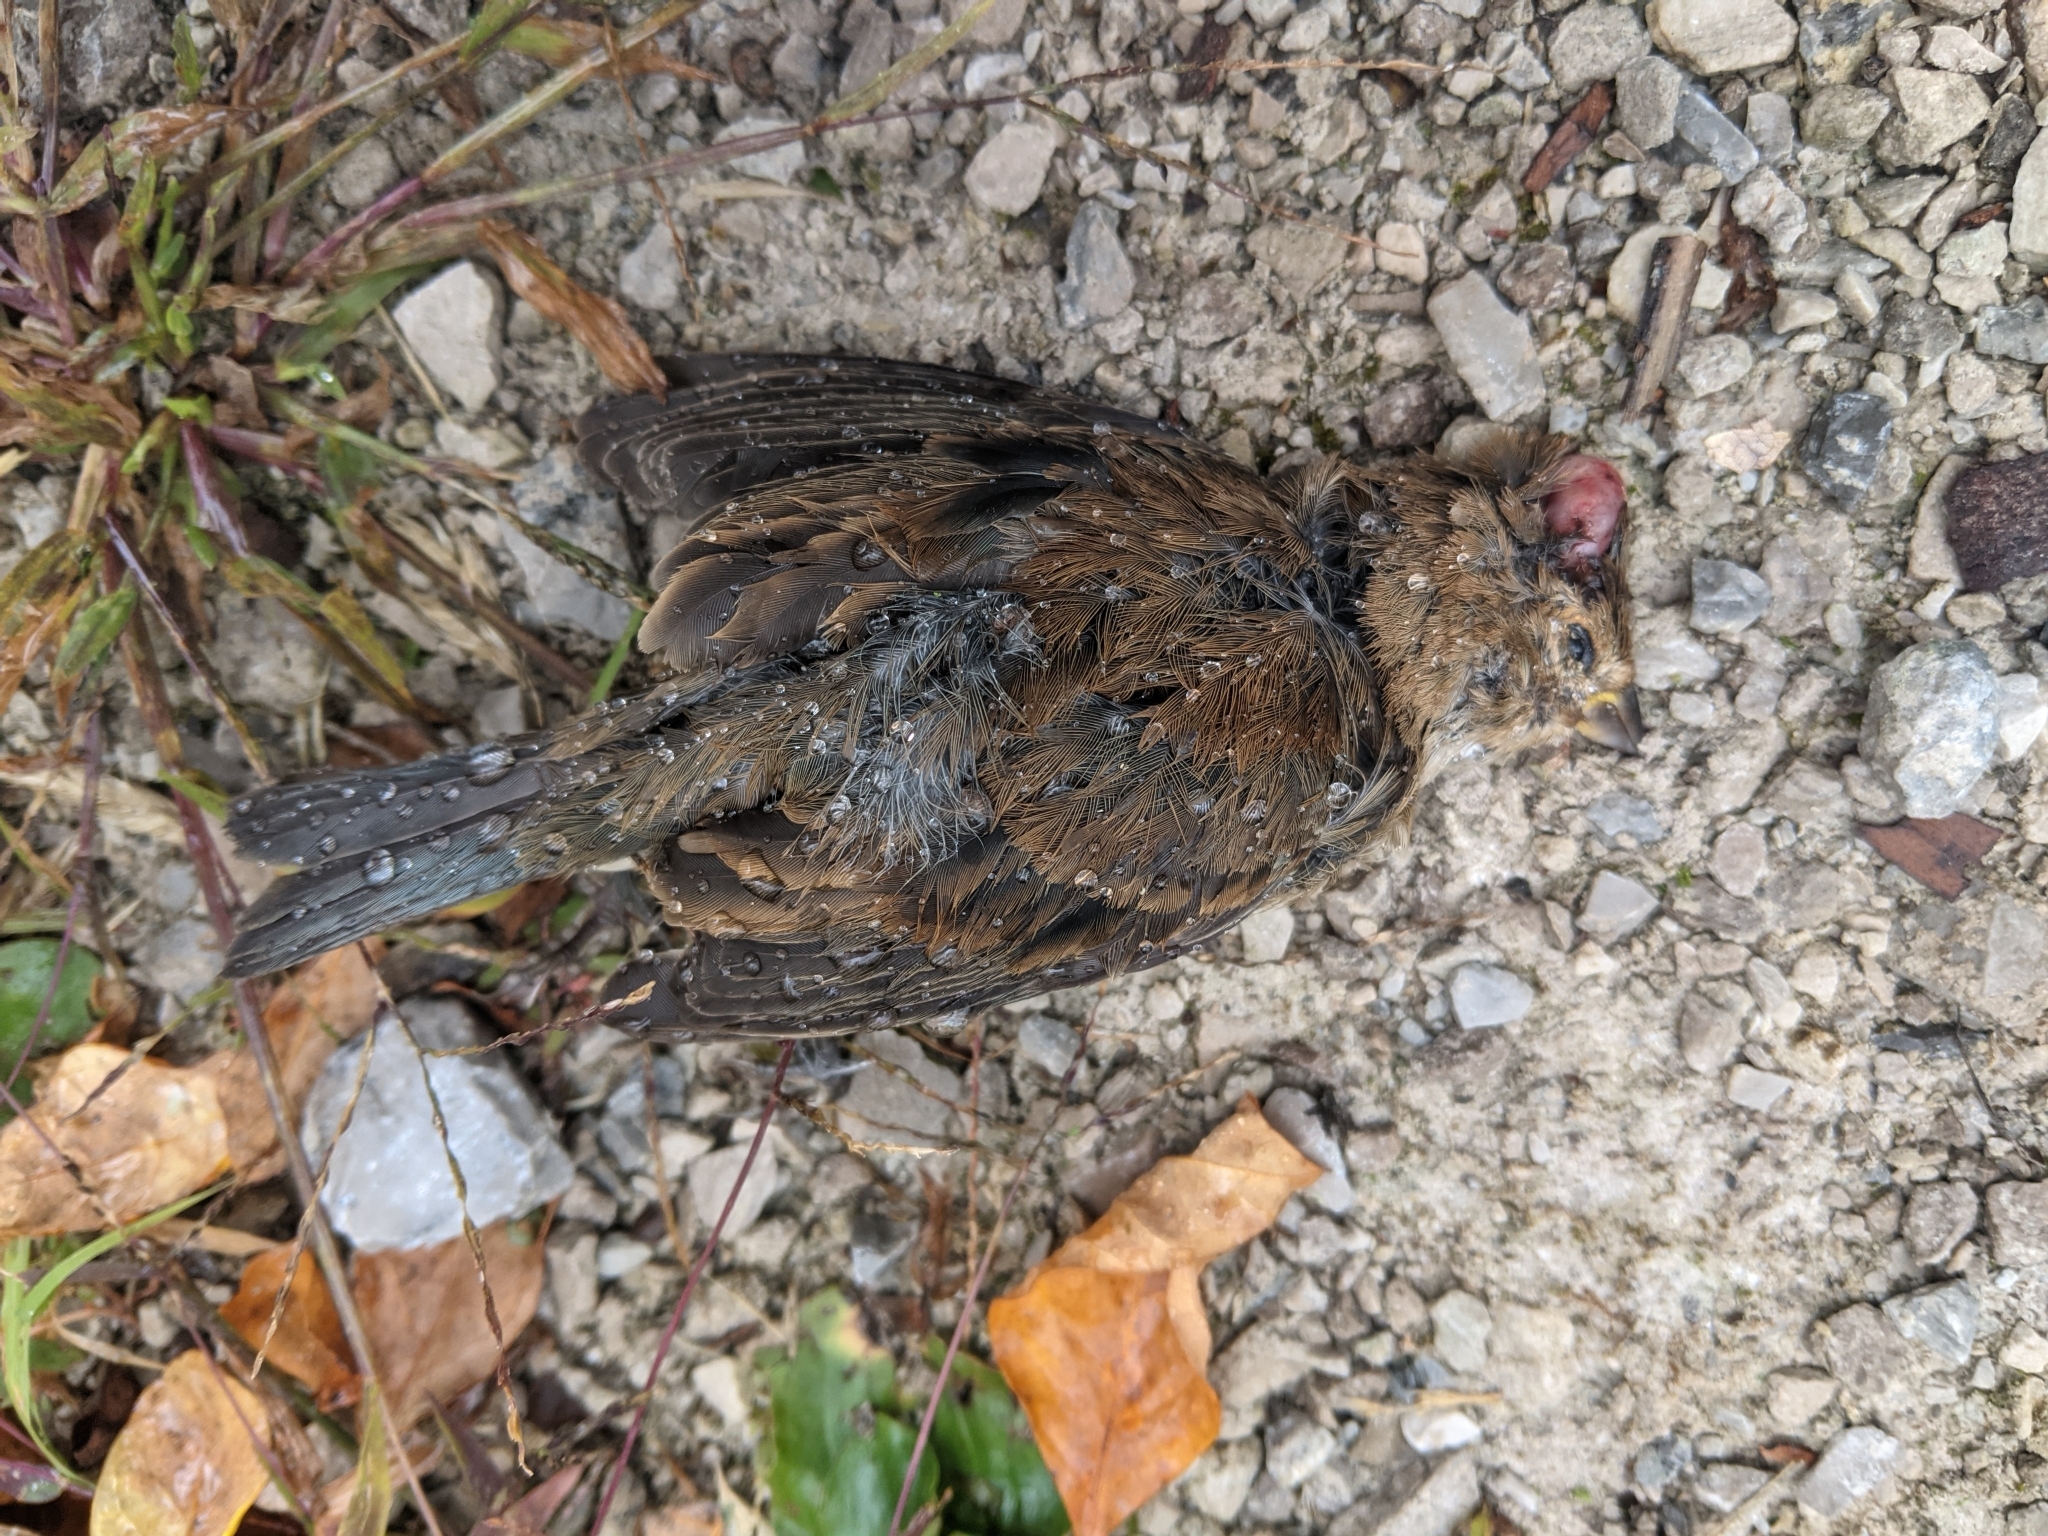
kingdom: Animalia
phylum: Chordata
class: Aves
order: Passeriformes
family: Cardinalidae
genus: Passerina
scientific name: Passerina cyanea
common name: Indigo bunting
